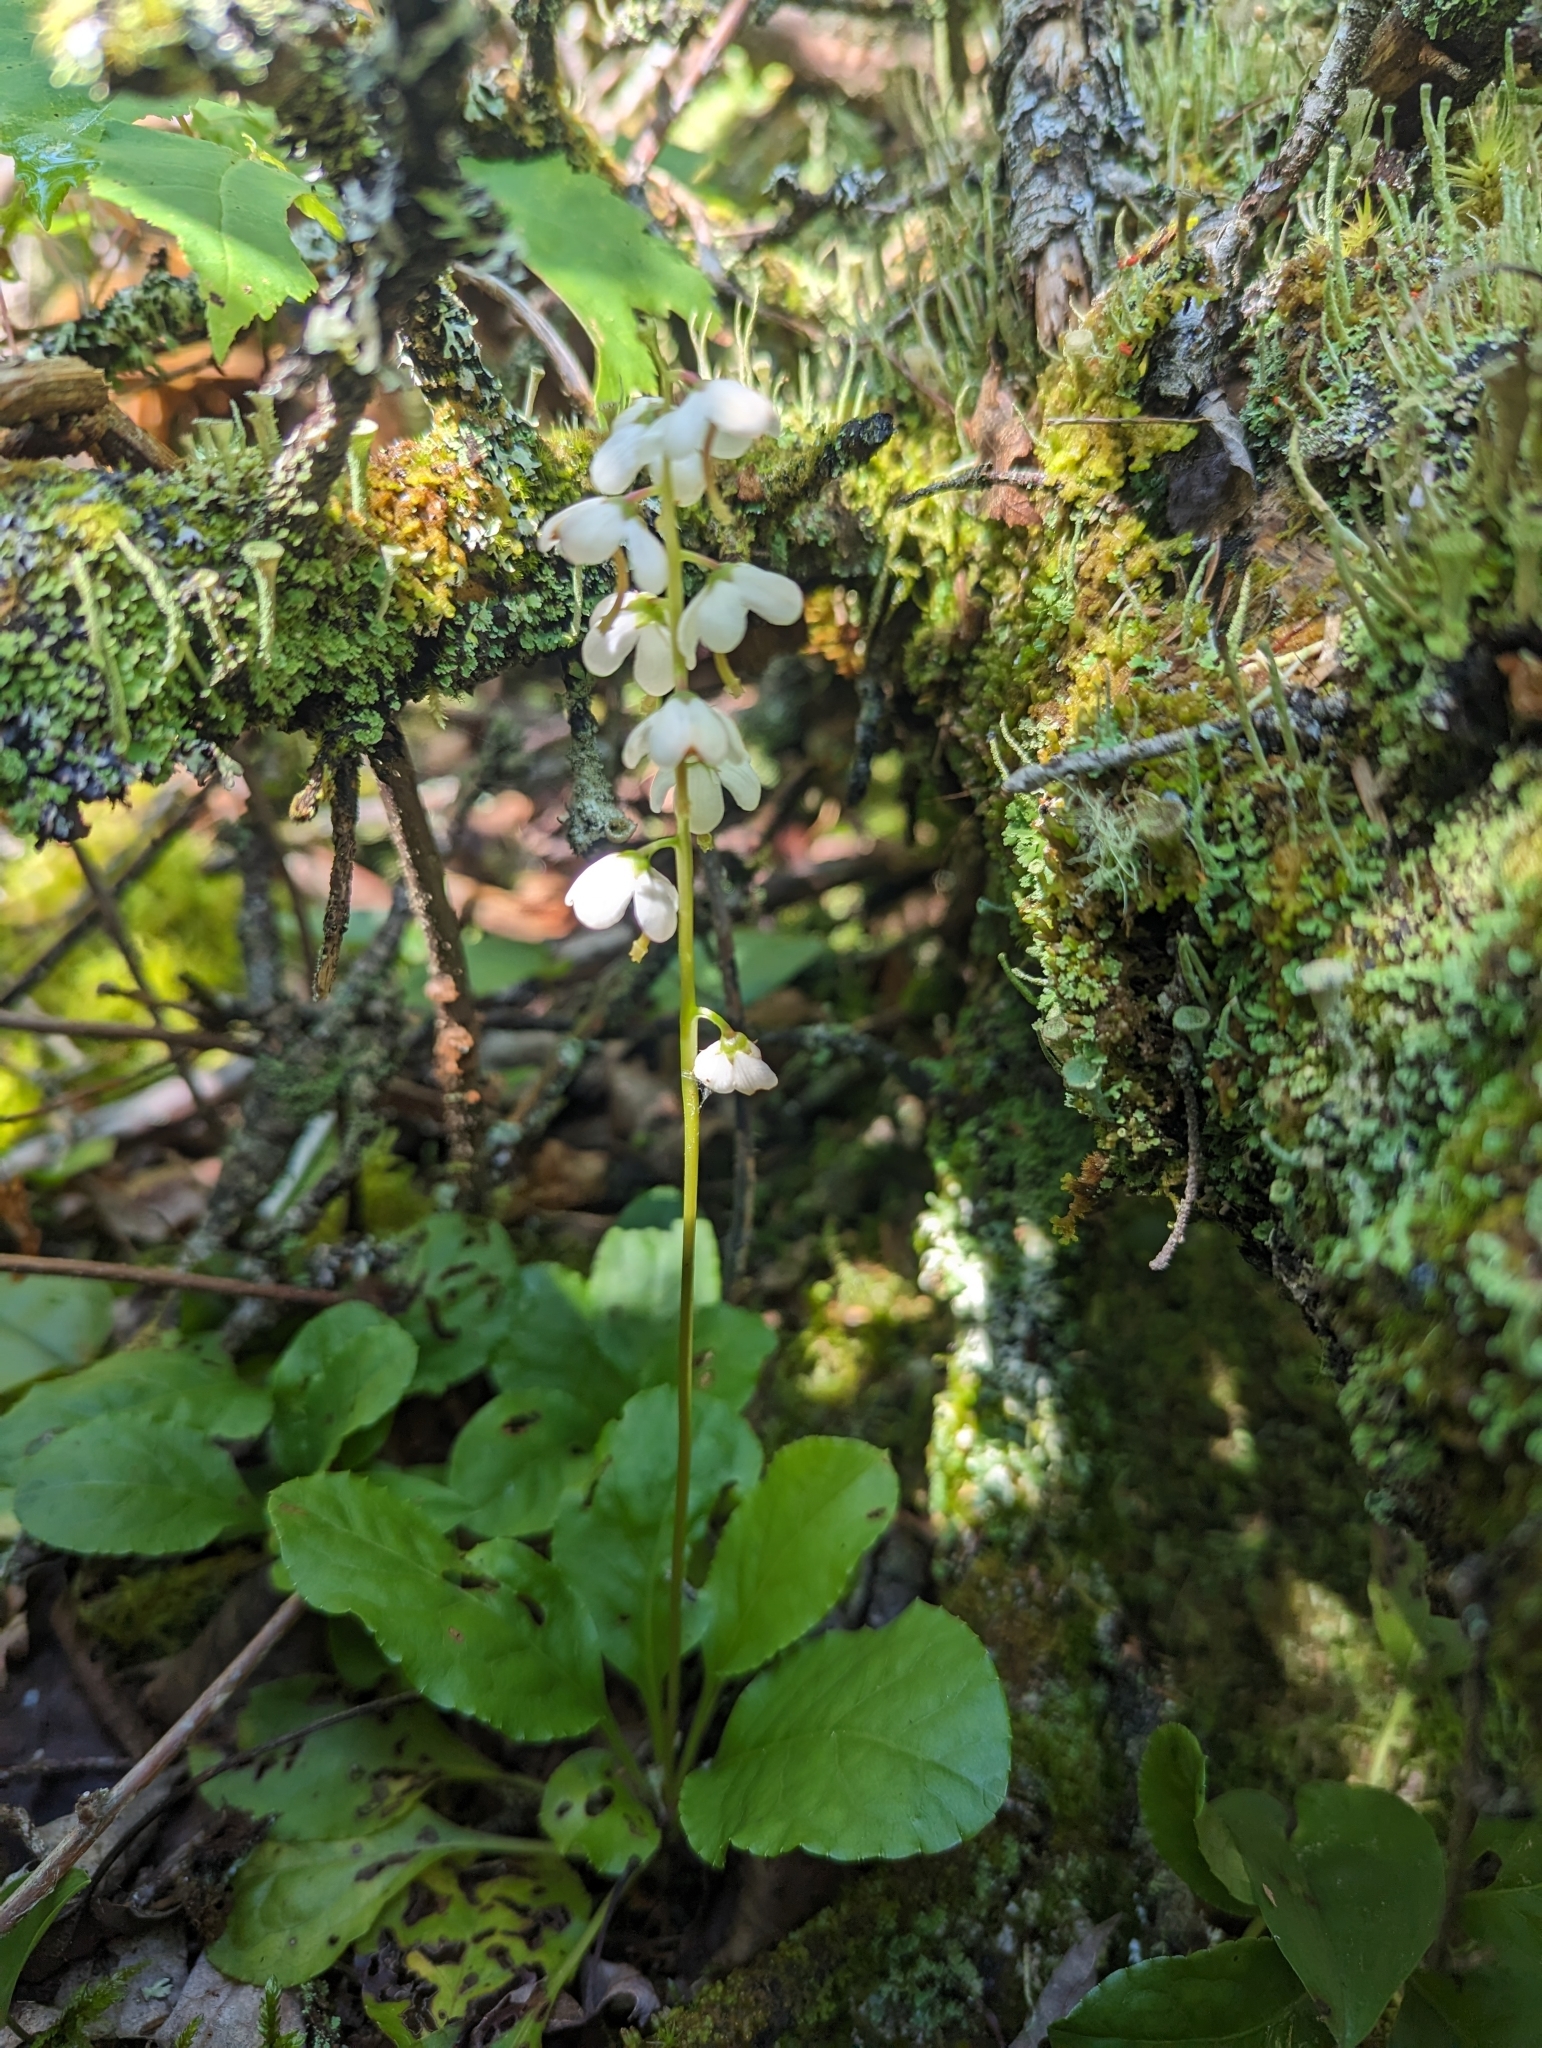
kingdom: Plantae
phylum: Tracheophyta
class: Magnoliopsida
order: Ericales
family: Ericaceae
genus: Pyrola
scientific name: Pyrola elliptica
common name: Shinleaf
